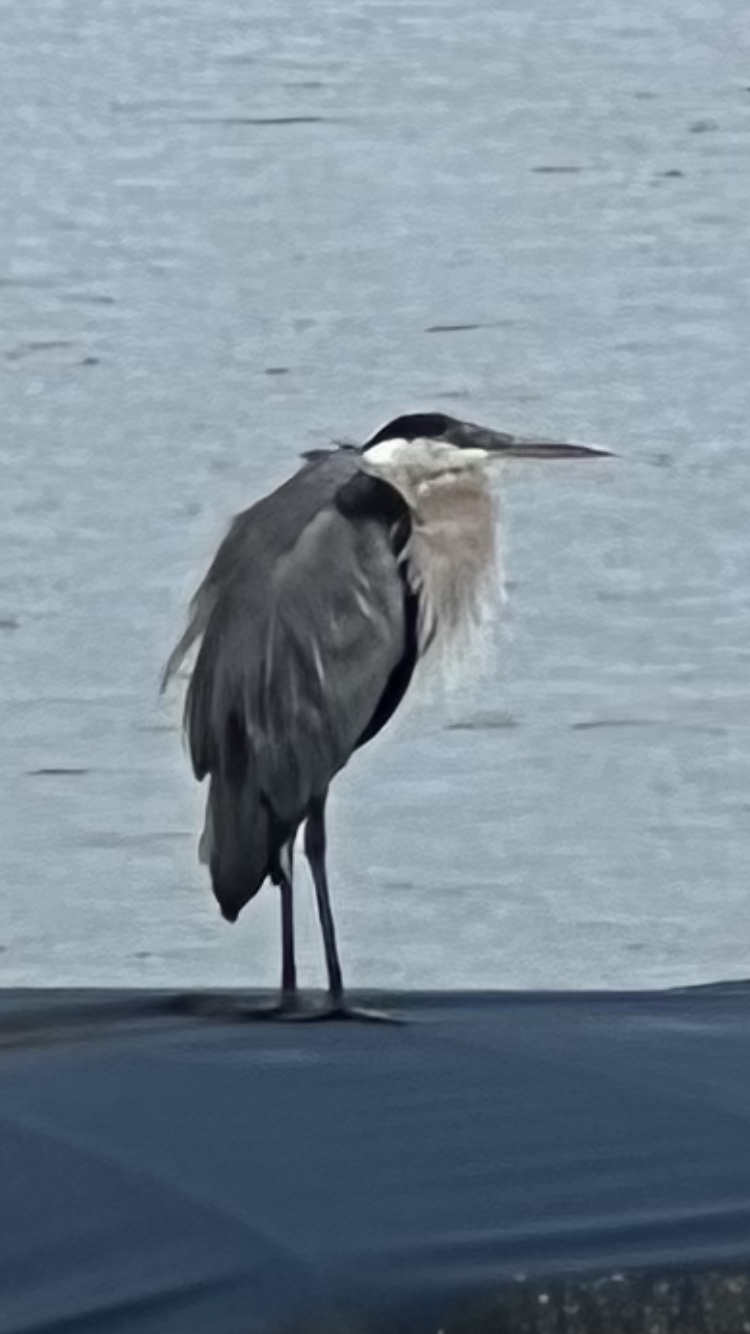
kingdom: Animalia
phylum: Chordata
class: Aves
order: Pelecaniformes
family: Ardeidae
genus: Ardea
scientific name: Ardea herodias
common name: Great blue heron
